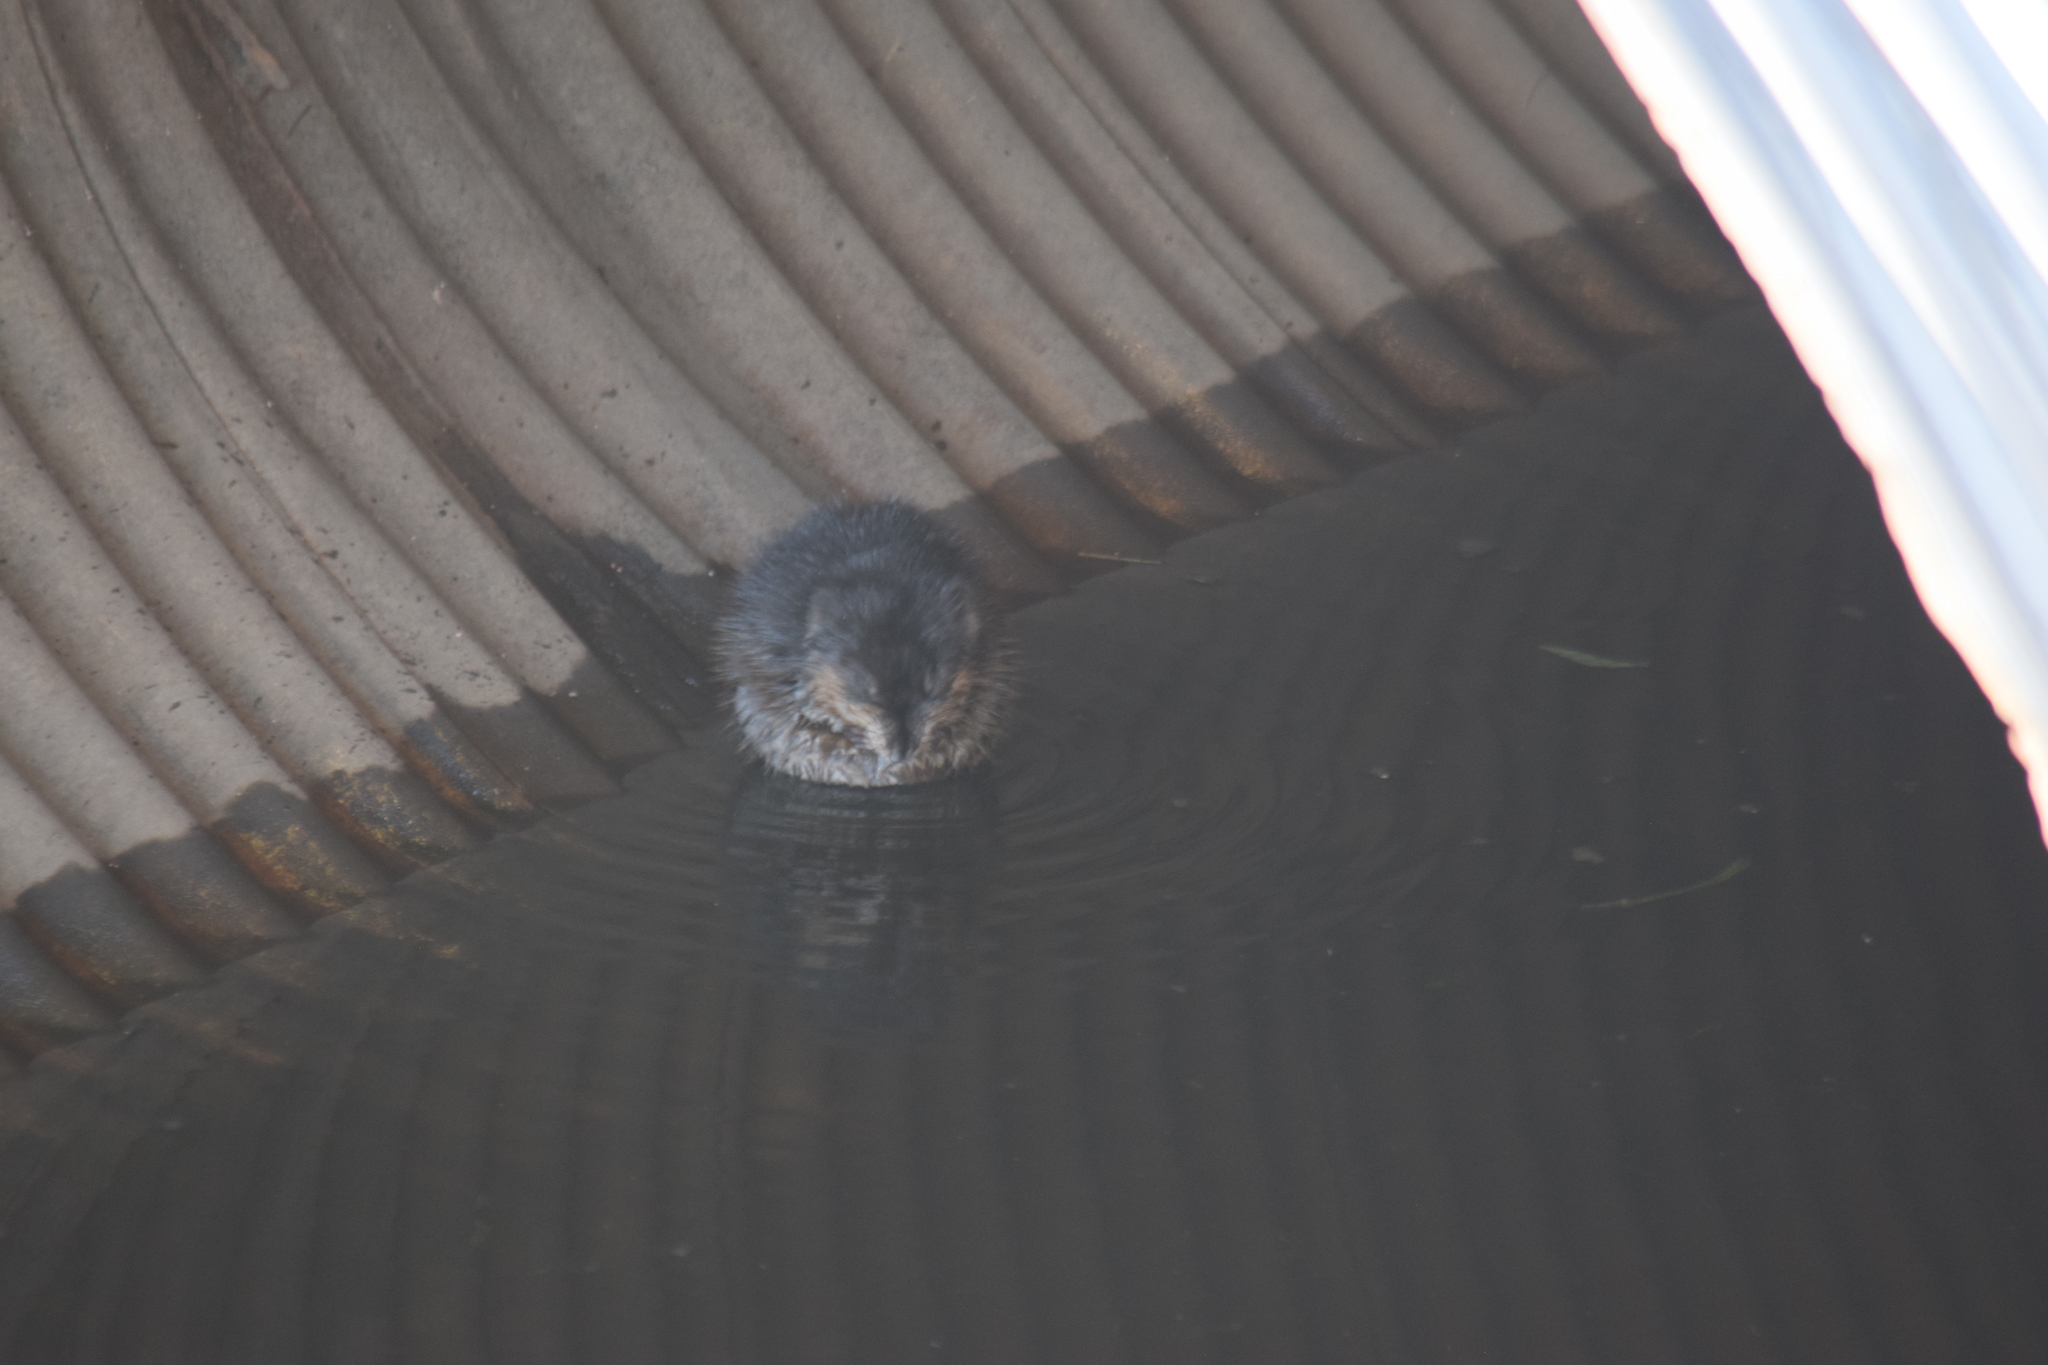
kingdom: Animalia
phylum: Chordata
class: Mammalia
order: Rodentia
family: Cricetidae
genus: Ondatra
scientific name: Ondatra zibethicus
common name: Muskrat
